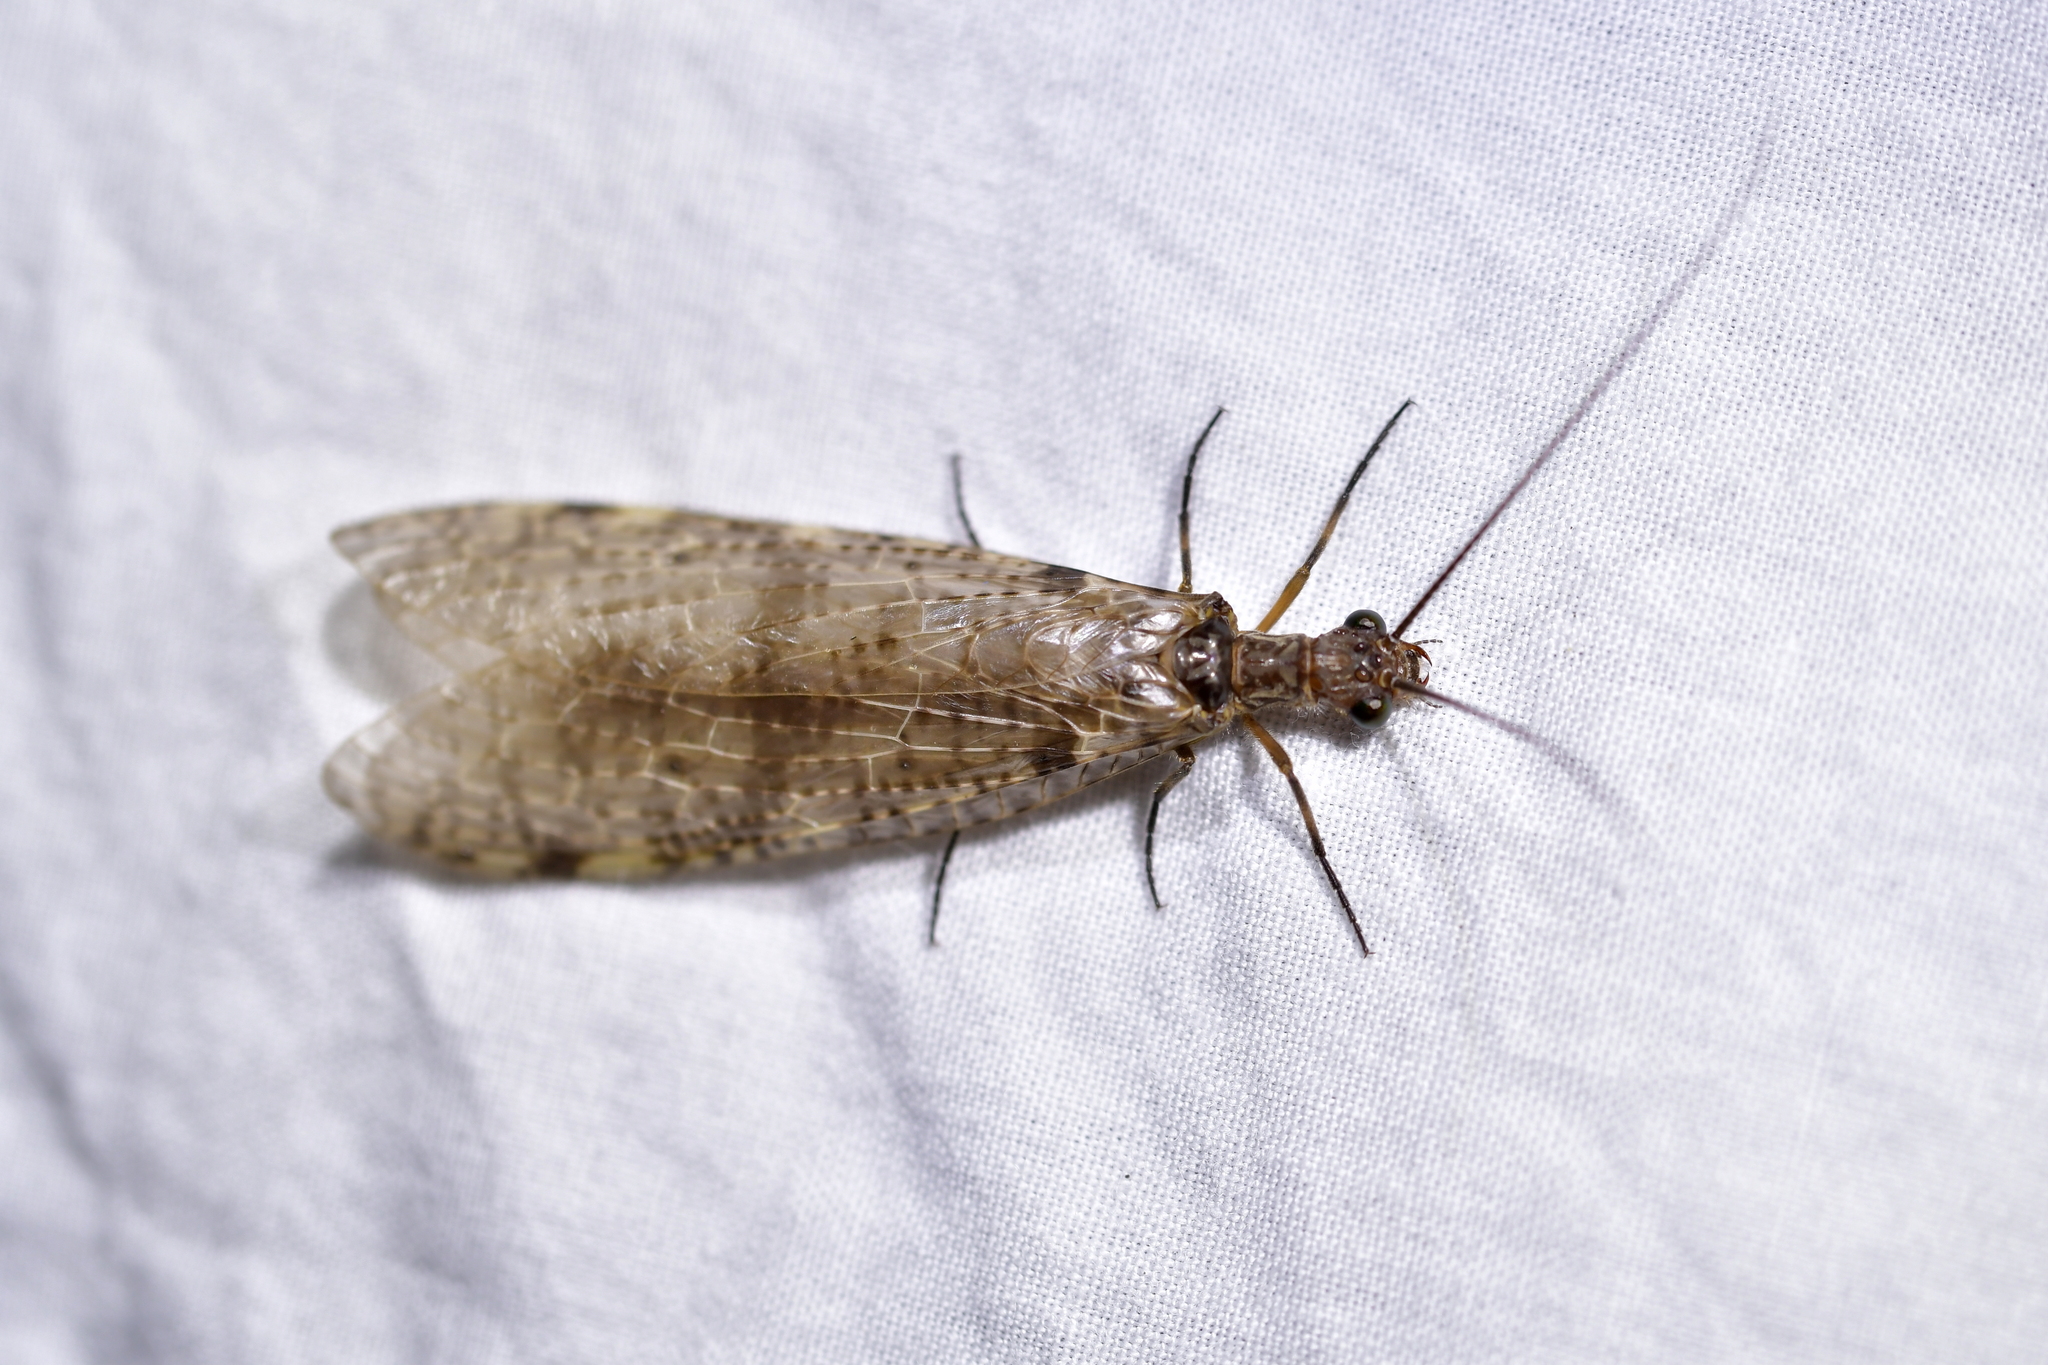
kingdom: Animalia
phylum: Arthropoda
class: Insecta
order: Megaloptera
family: Corydalidae
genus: Archichauliodes
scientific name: Archichauliodes diversus
